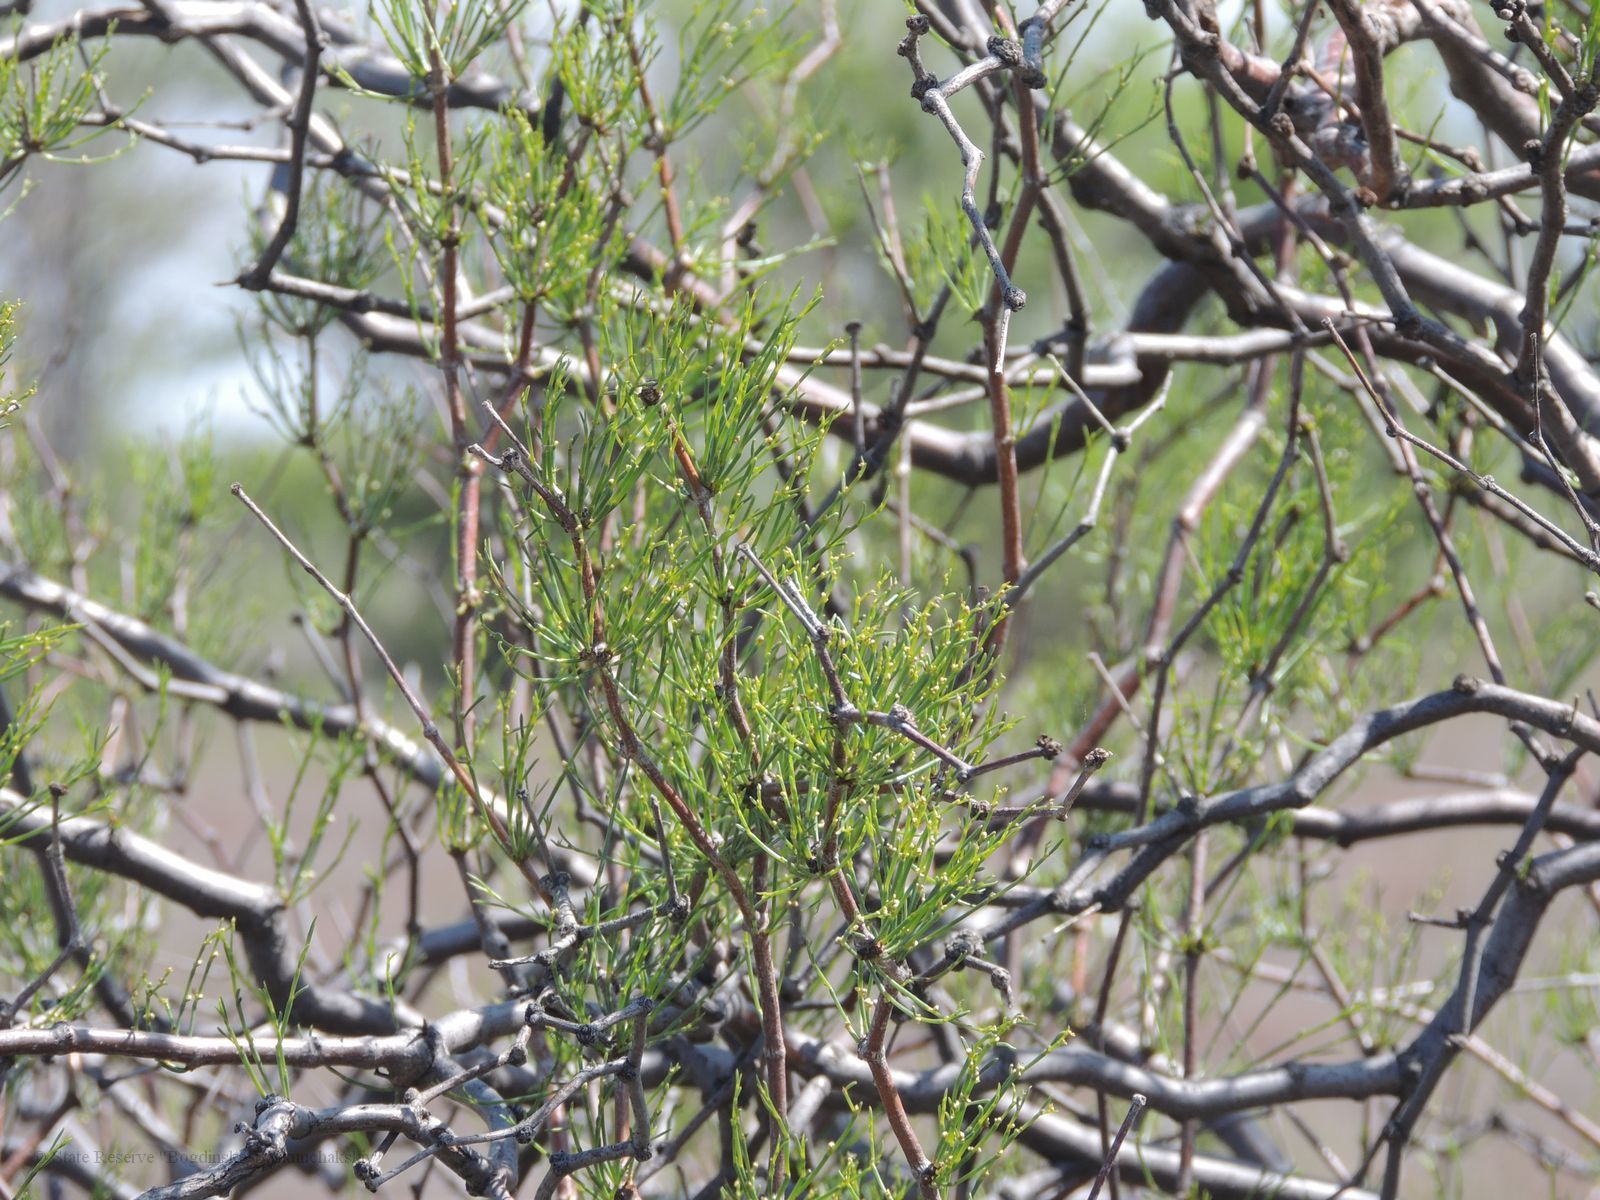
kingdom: Plantae
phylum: Tracheophyta
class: Magnoliopsida
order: Caryophyllales
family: Polygonaceae
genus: Calligonum
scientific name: Calligonum aphyllum
